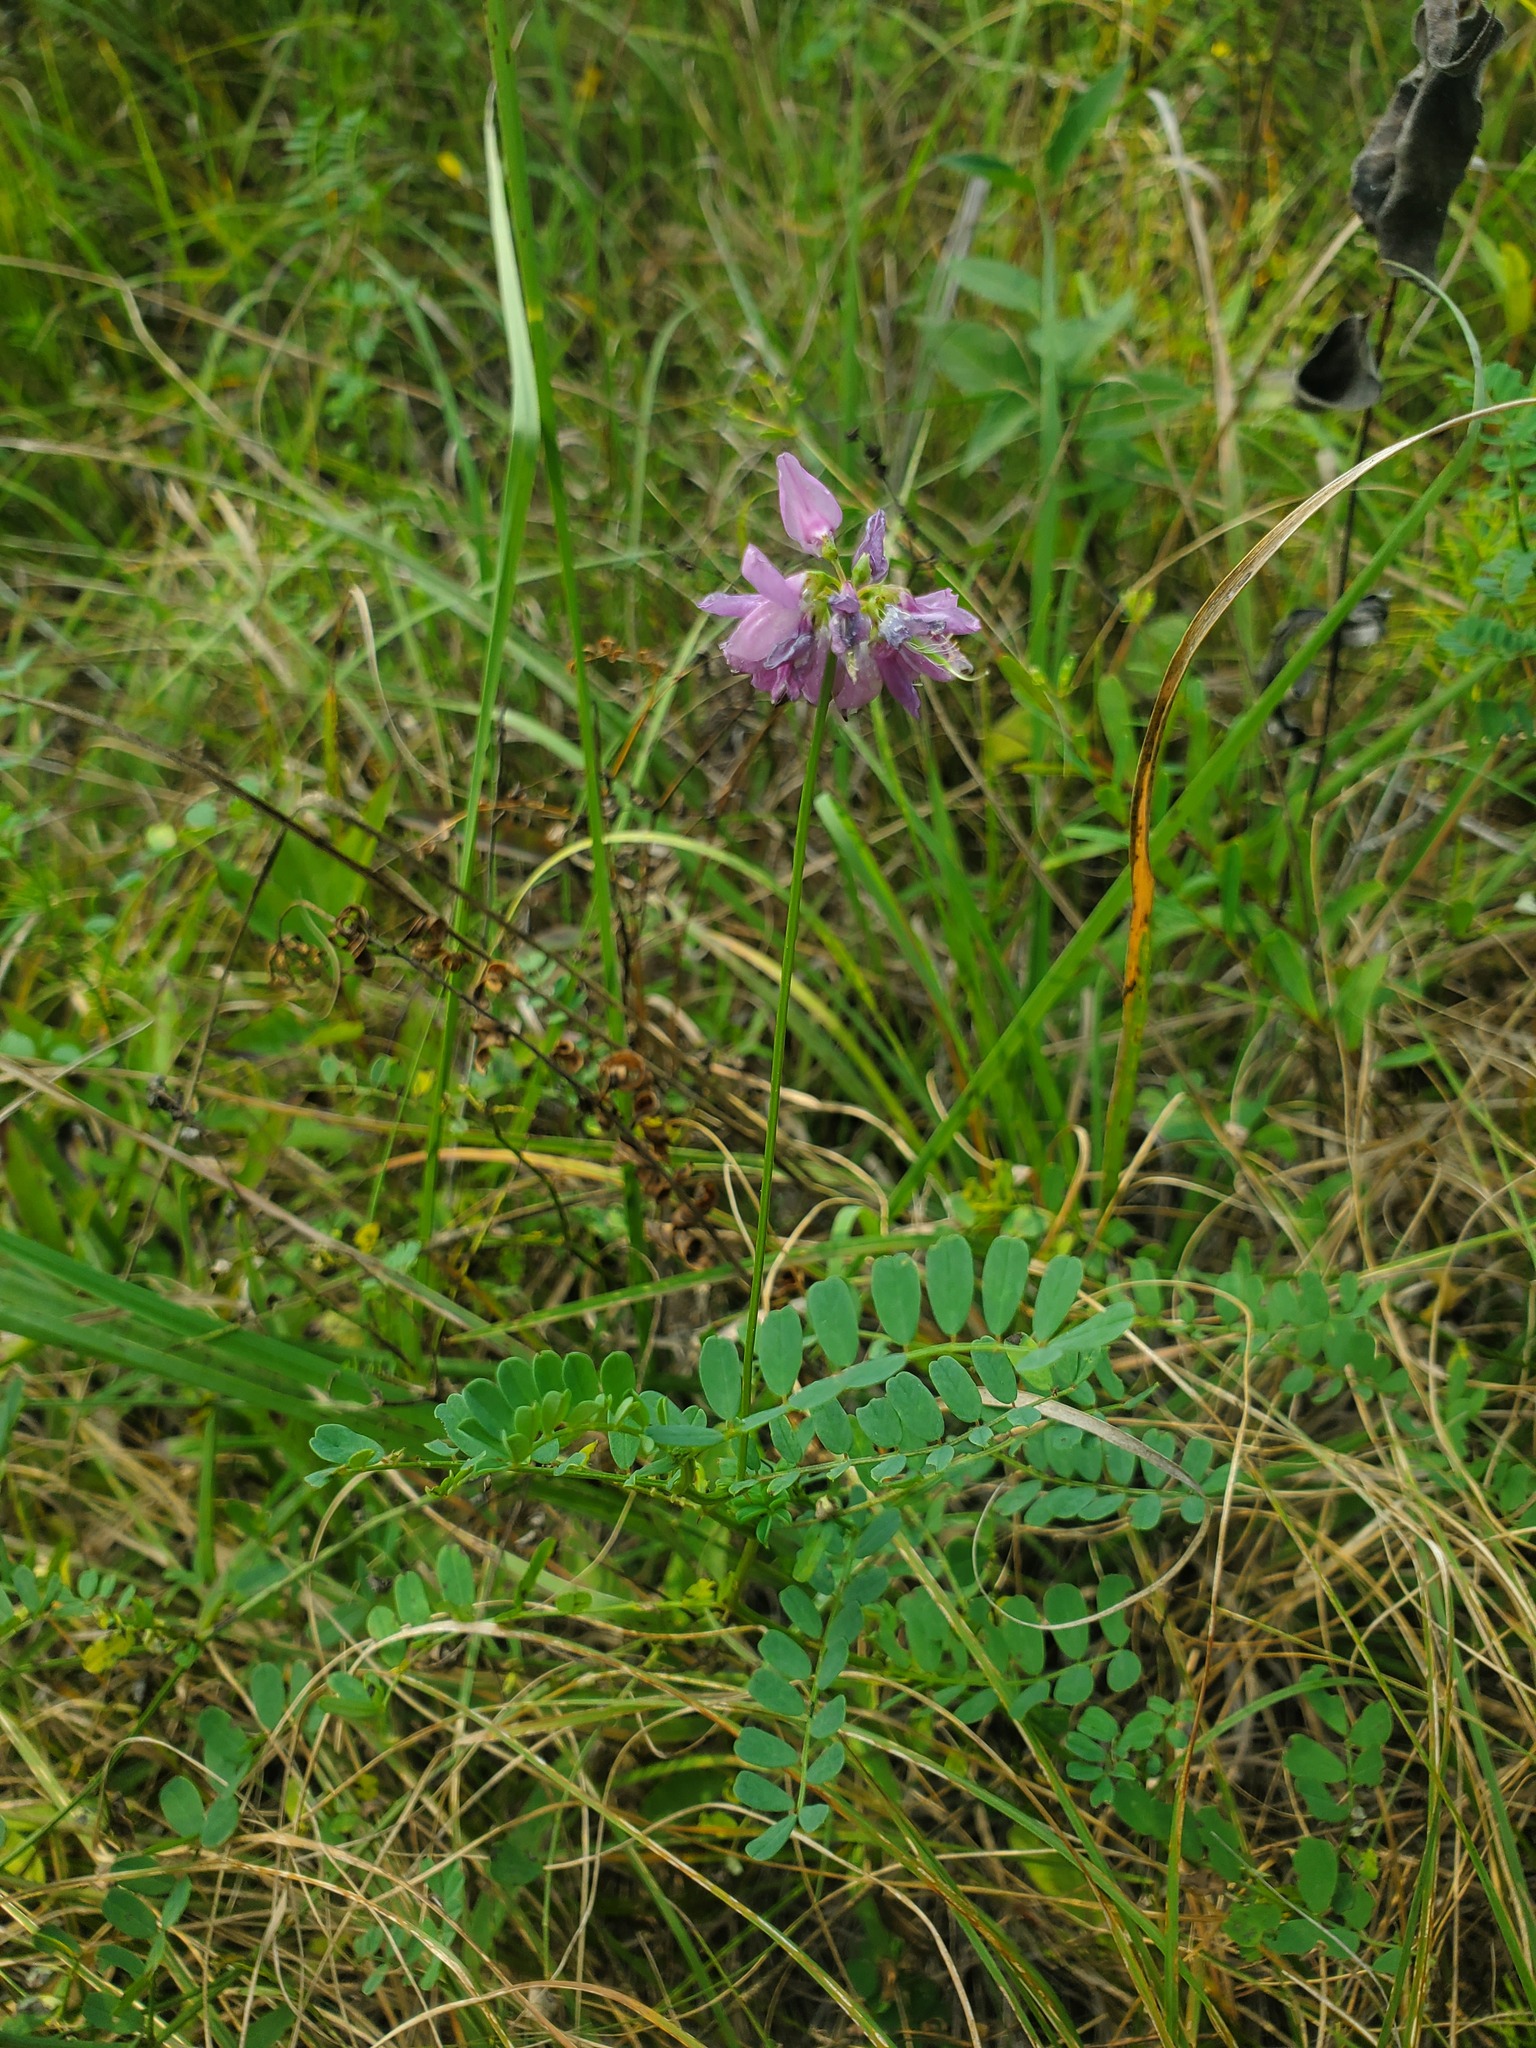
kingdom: Plantae
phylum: Tracheophyta
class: Magnoliopsida
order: Fabales
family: Fabaceae
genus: Coronilla
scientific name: Coronilla varia
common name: Crownvetch
